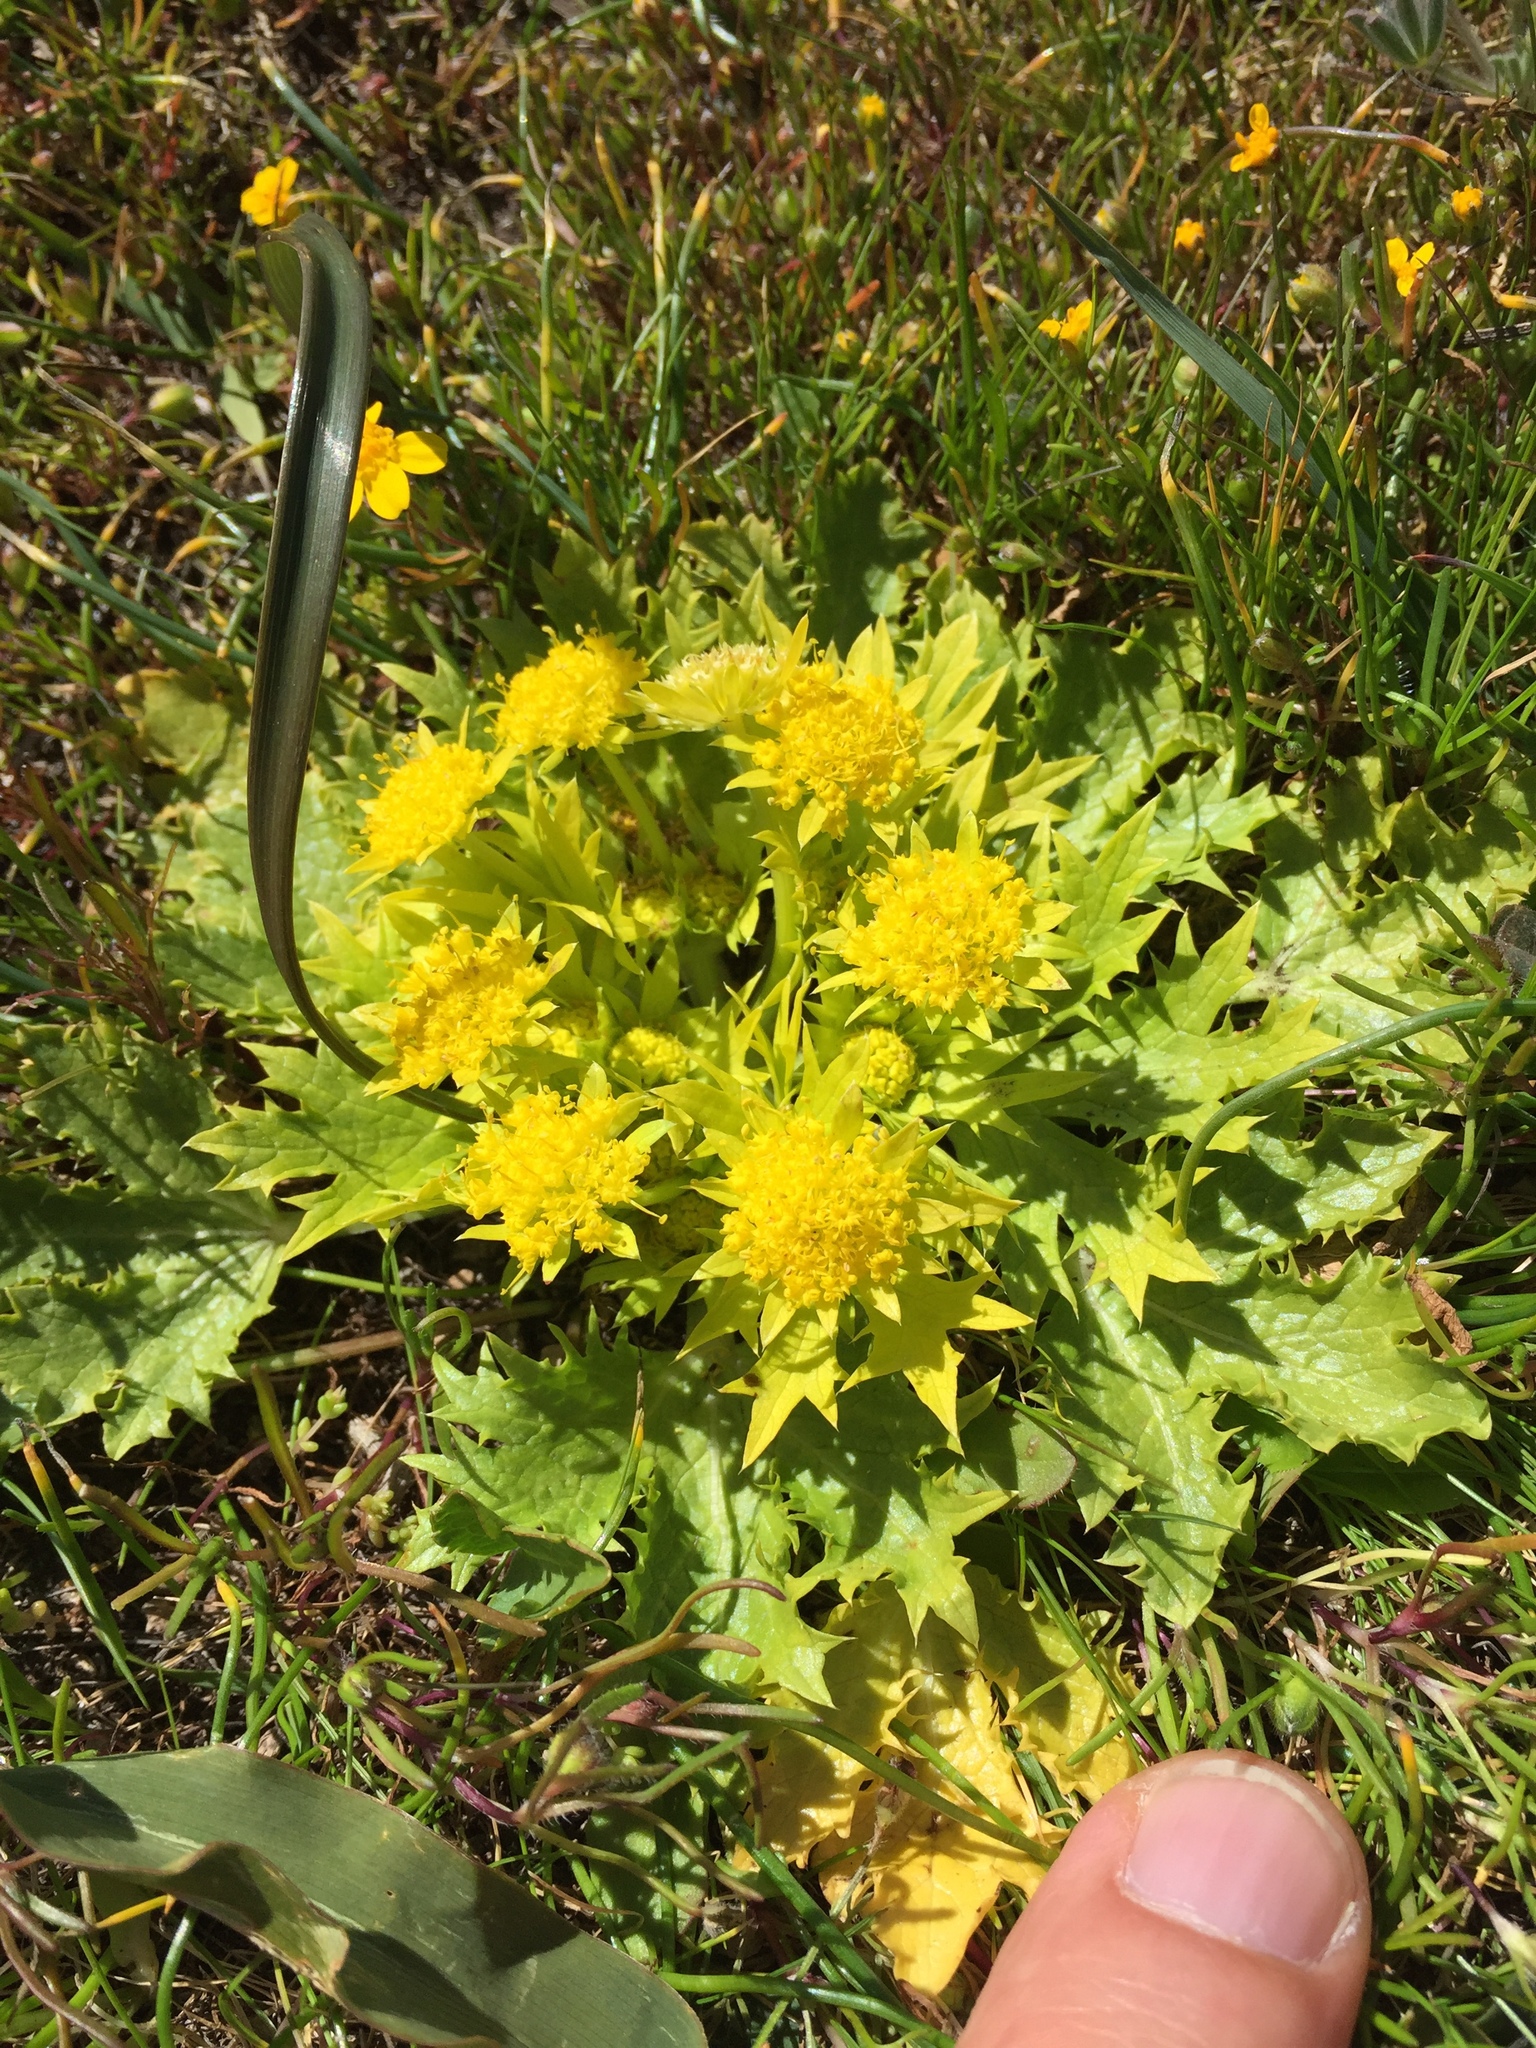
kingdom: Plantae
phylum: Tracheophyta
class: Magnoliopsida
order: Apiales
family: Apiaceae
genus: Sanicula
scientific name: Sanicula arctopoides
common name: Footsteps-of-spring
